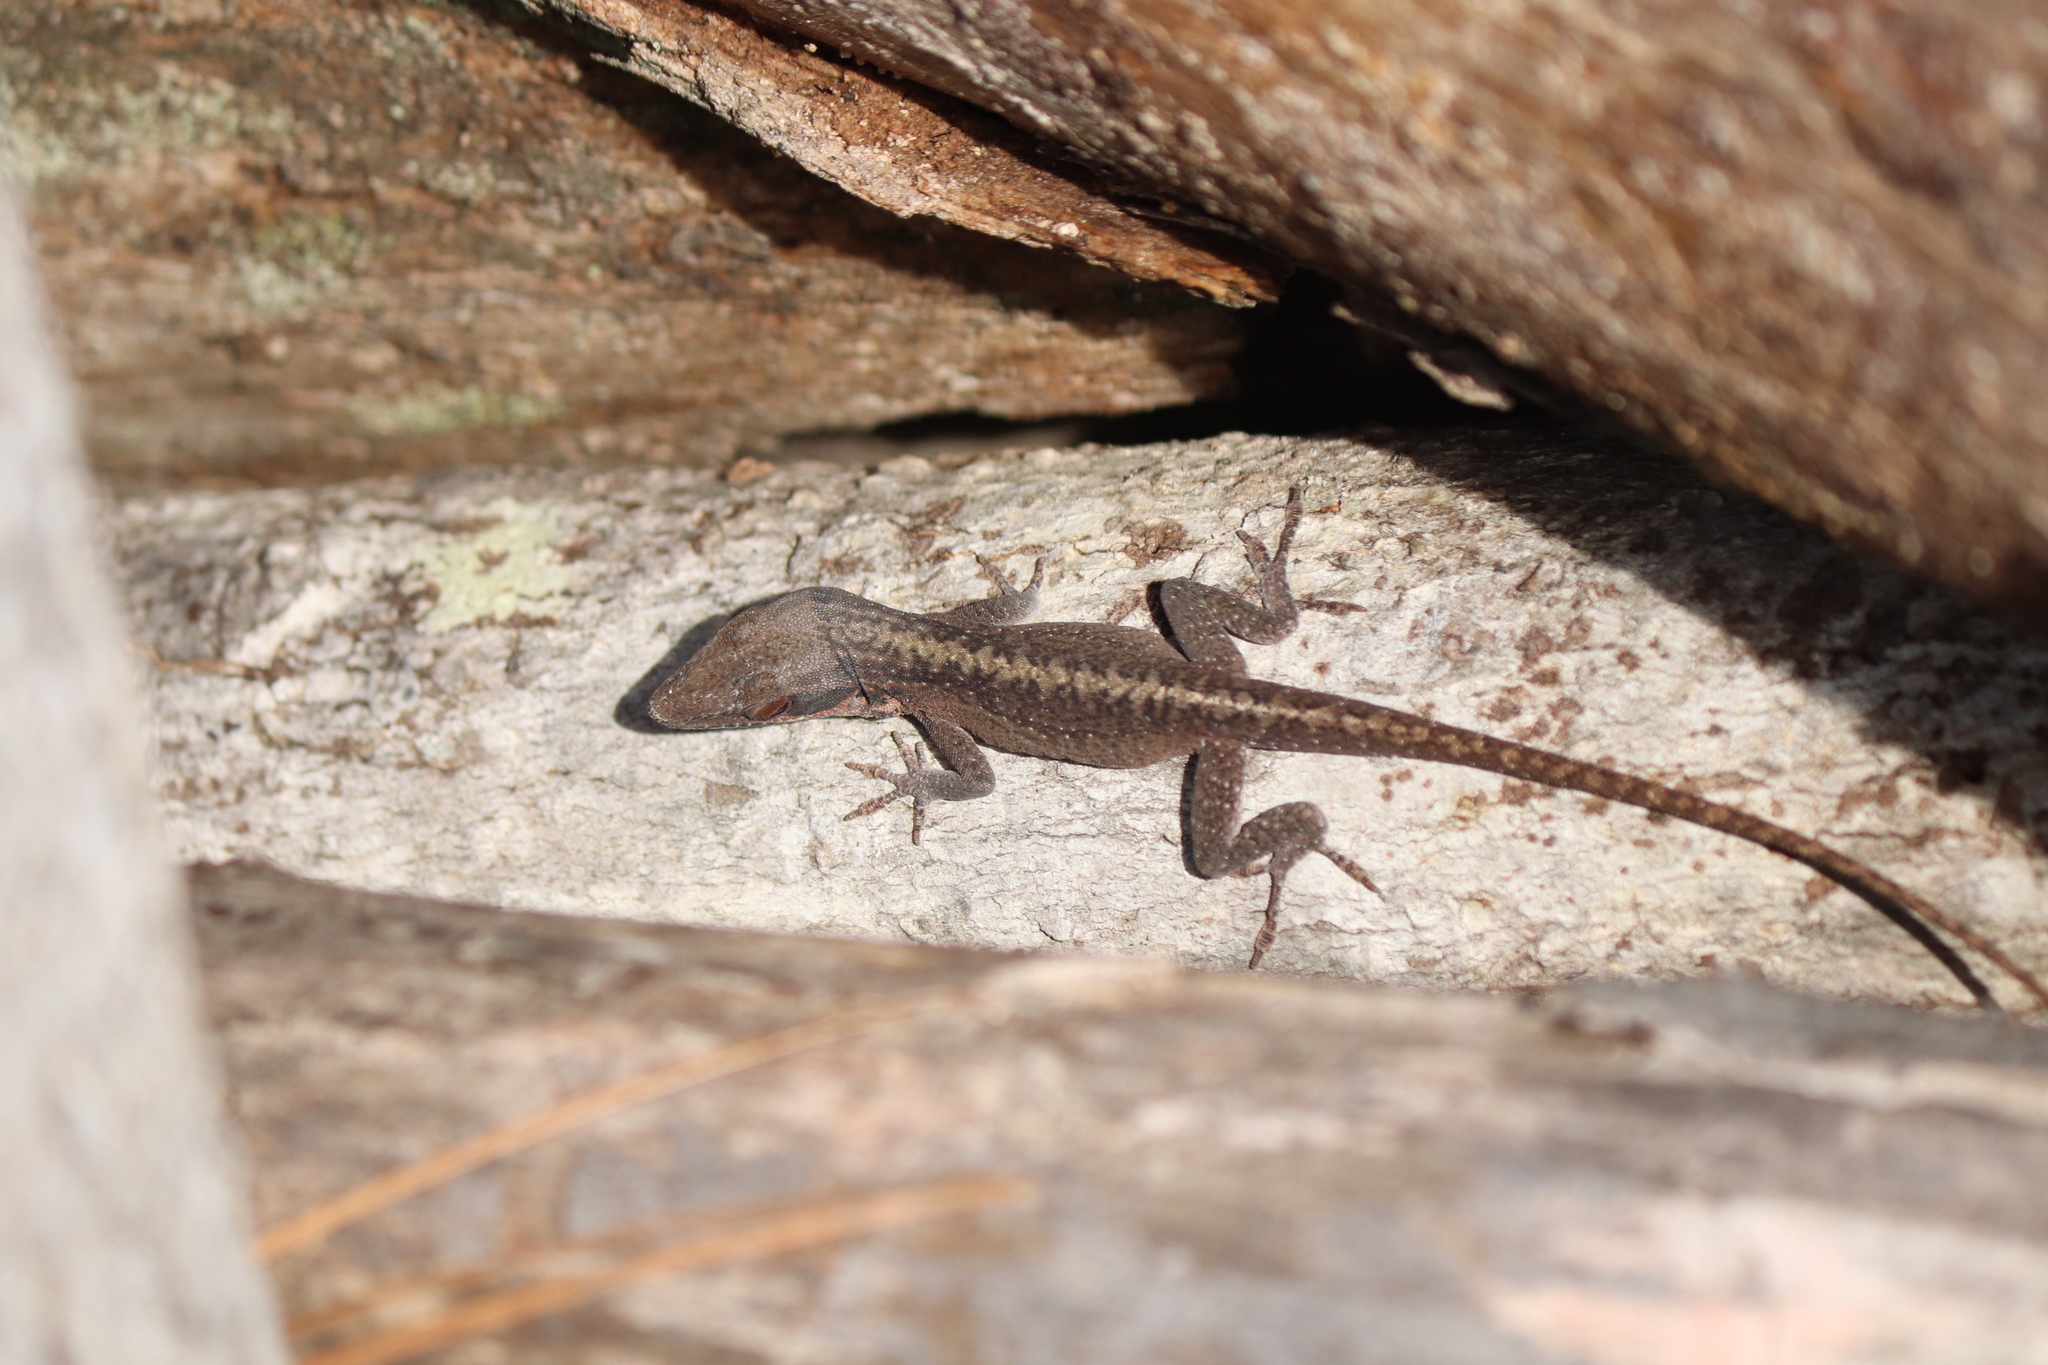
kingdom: Animalia
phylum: Chordata
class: Squamata
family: Dactyloidae
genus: Anolis
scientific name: Anolis carolinensis
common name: Green anole
